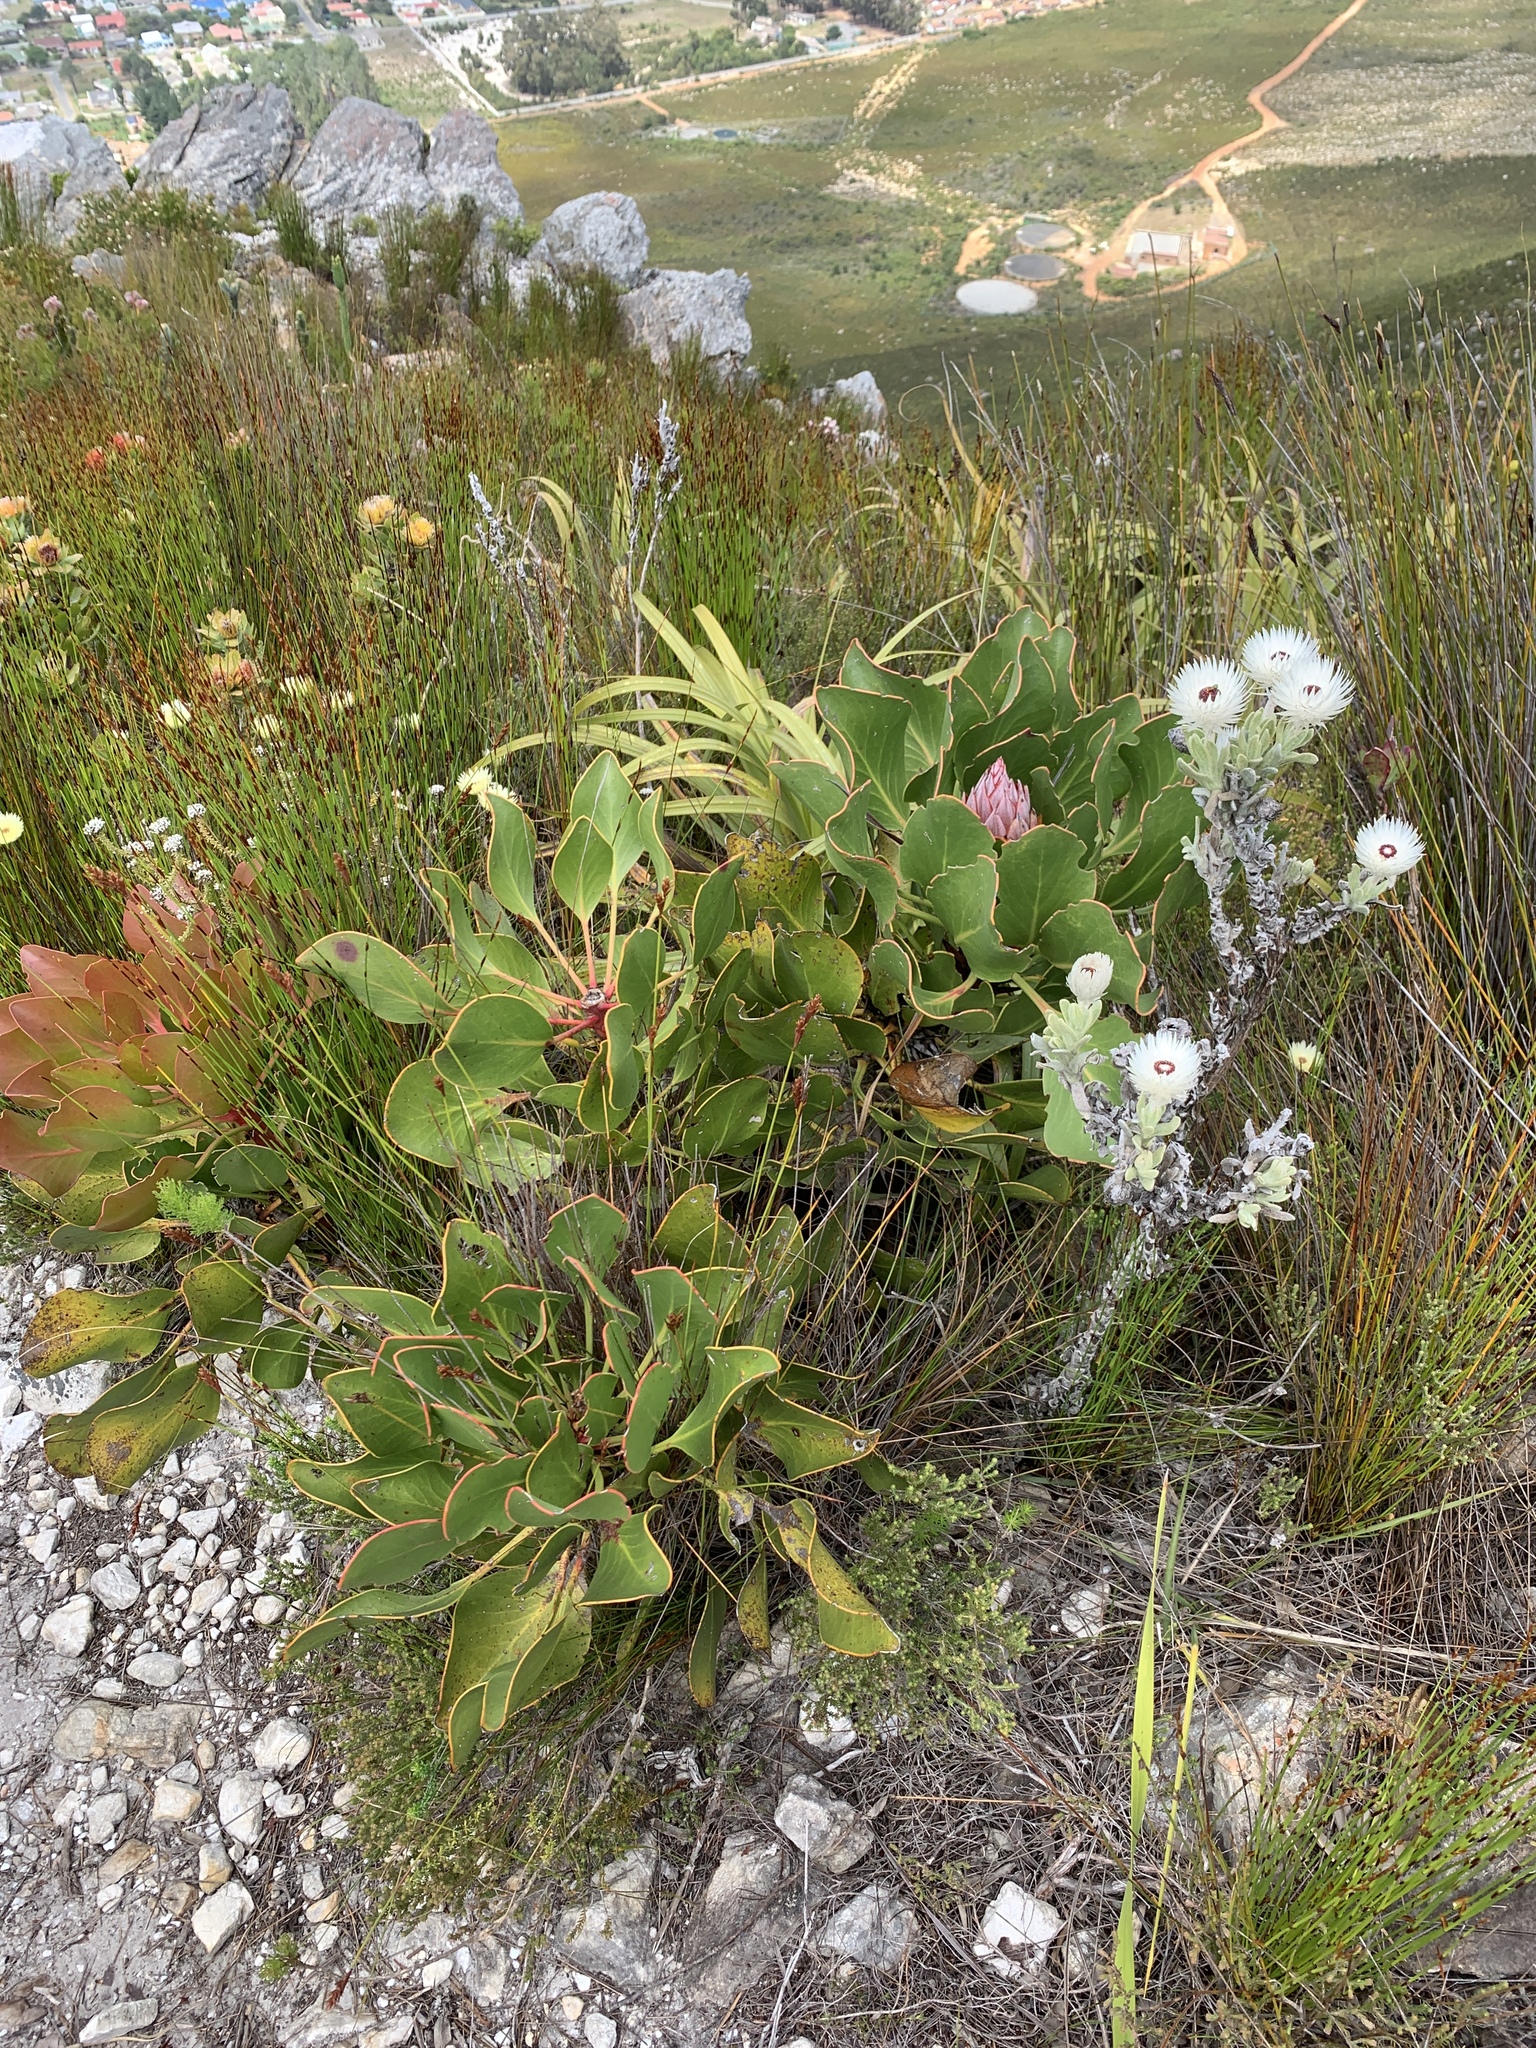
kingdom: Plantae
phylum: Tracheophyta
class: Magnoliopsida
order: Proteales
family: Proteaceae
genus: Protea
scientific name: Protea cynaroides
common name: King protea
